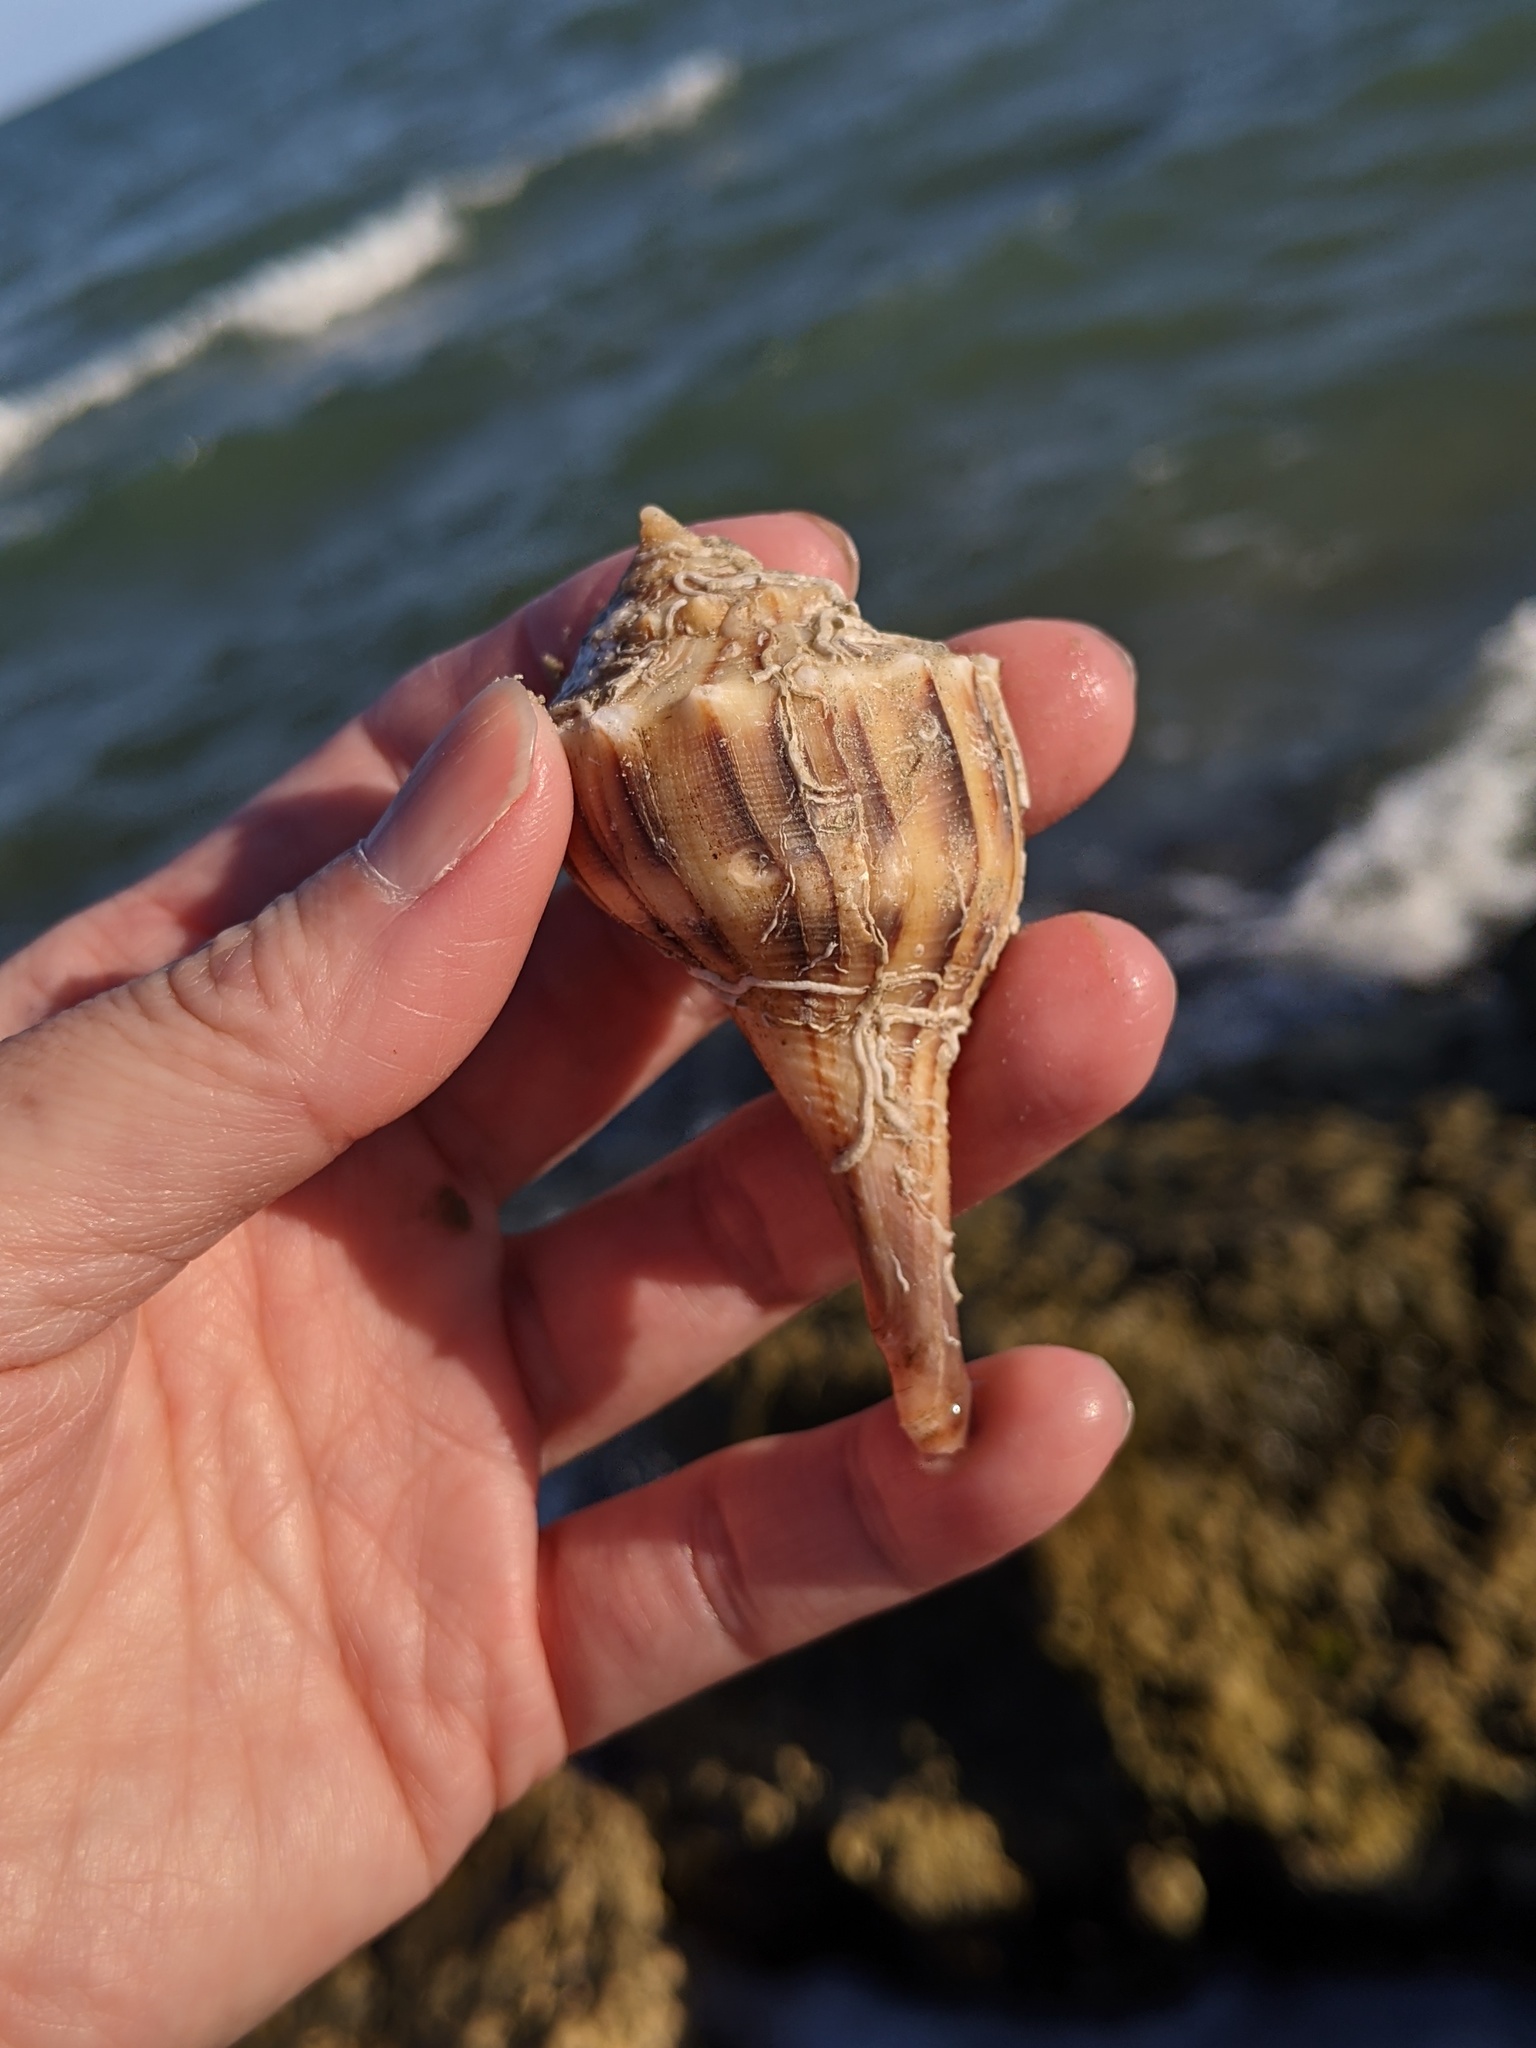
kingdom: Animalia
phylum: Arthropoda
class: Malacostraca
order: Decapoda
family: Diogenidae
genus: Clibanarius
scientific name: Clibanarius vittatus
